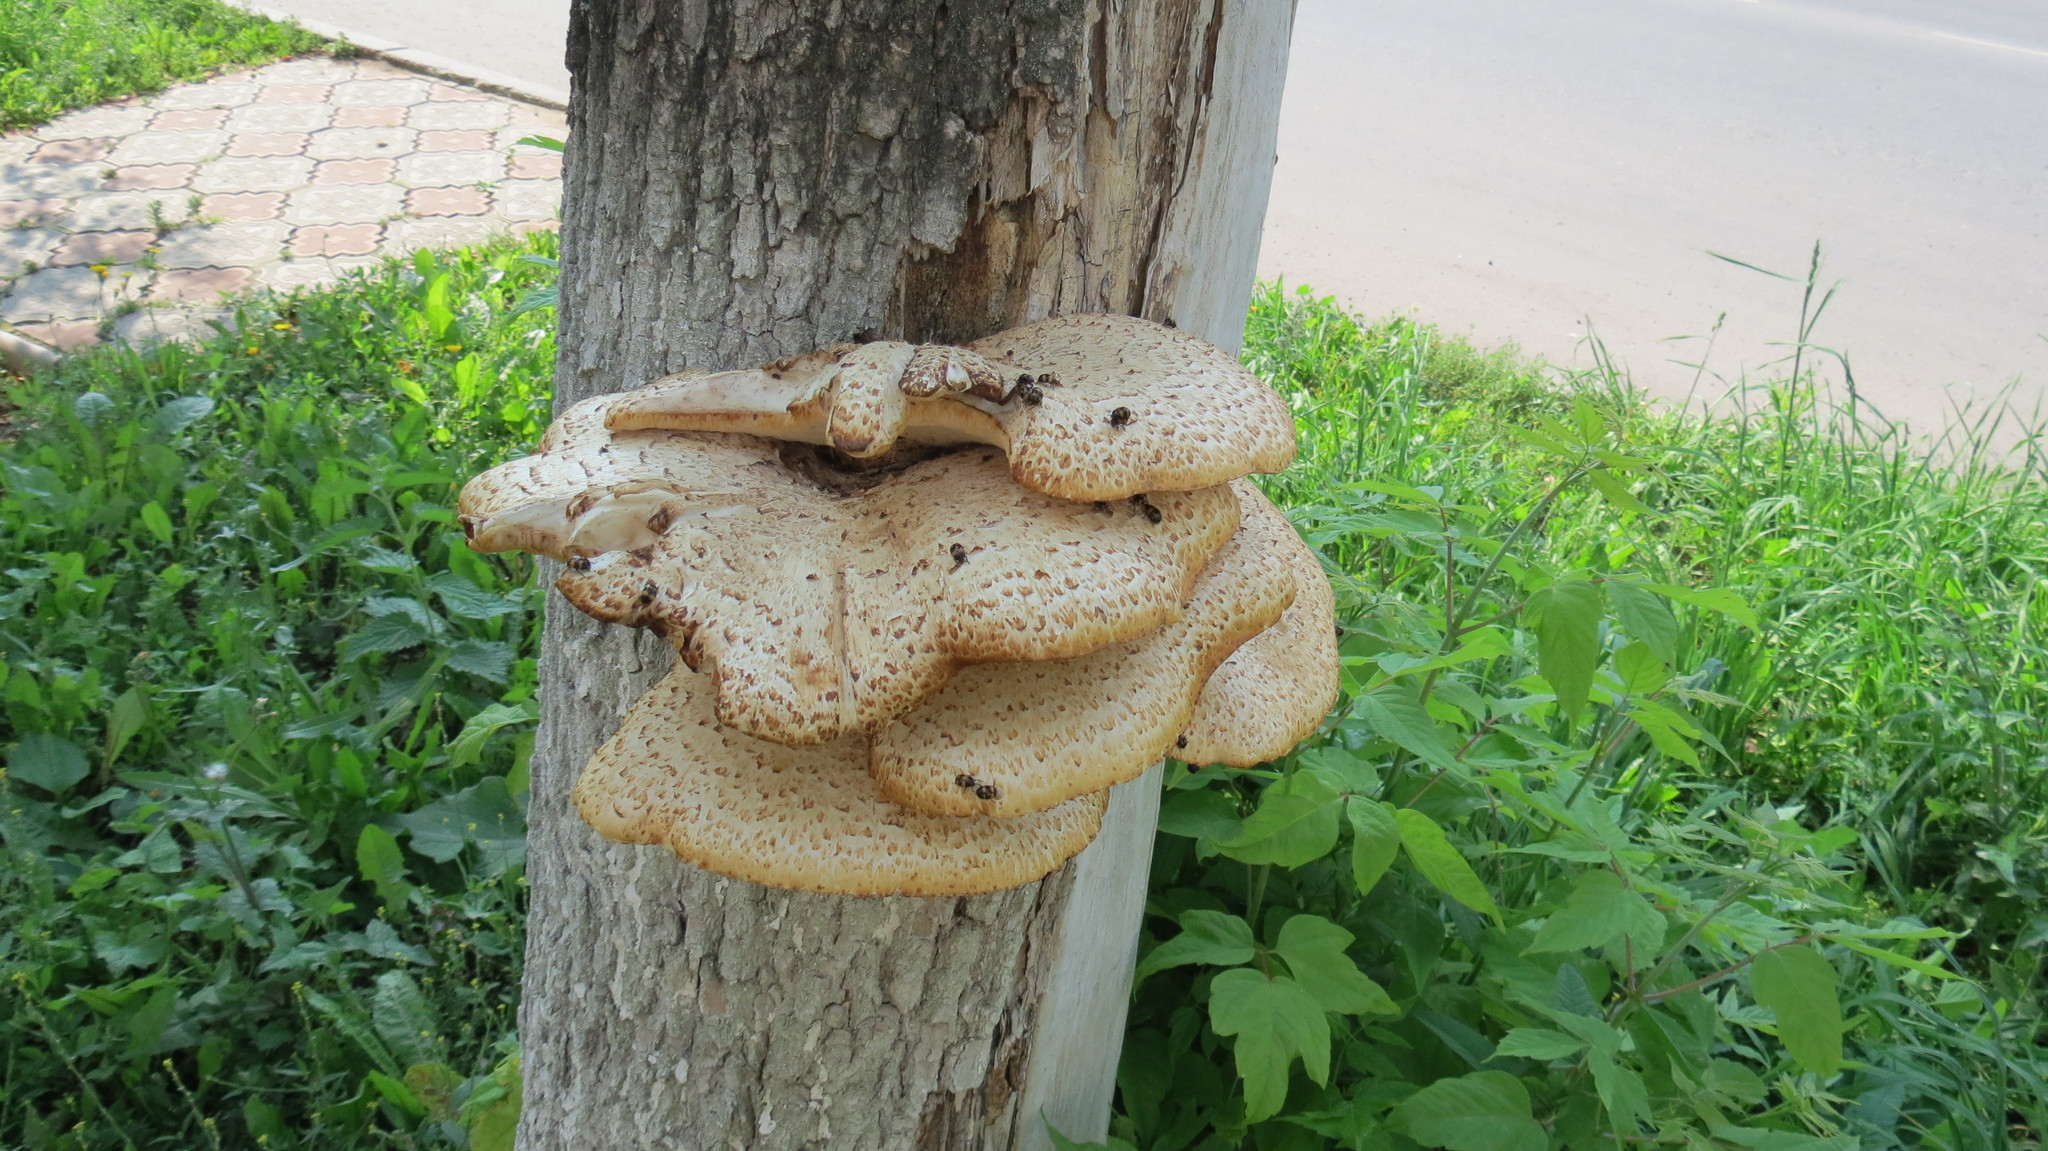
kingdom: Fungi
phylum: Basidiomycota
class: Agaricomycetes
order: Polyporales
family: Polyporaceae
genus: Cerioporus
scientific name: Cerioporus squamosus
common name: Dryad's saddle
